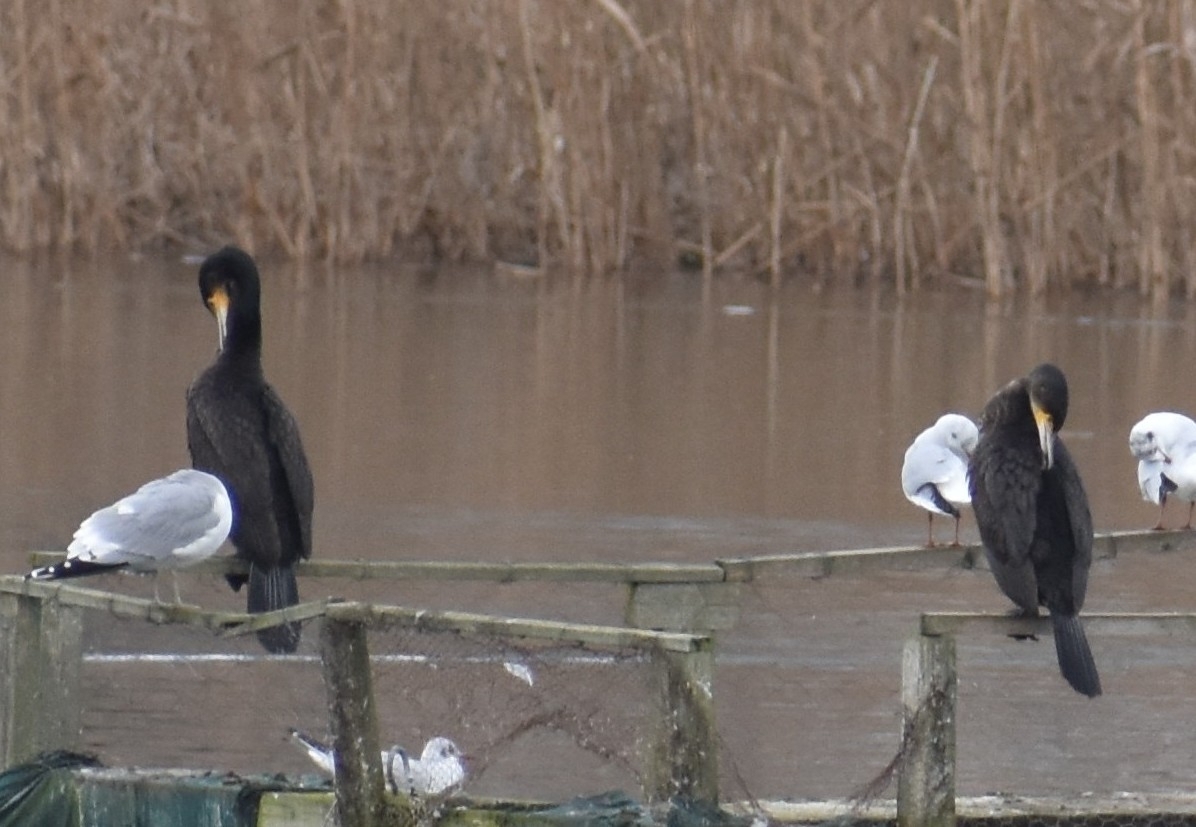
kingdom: Animalia
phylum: Chordata
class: Aves
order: Suliformes
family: Phalacrocoracidae
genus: Phalacrocorax
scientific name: Phalacrocorax carbo
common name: Great cormorant
